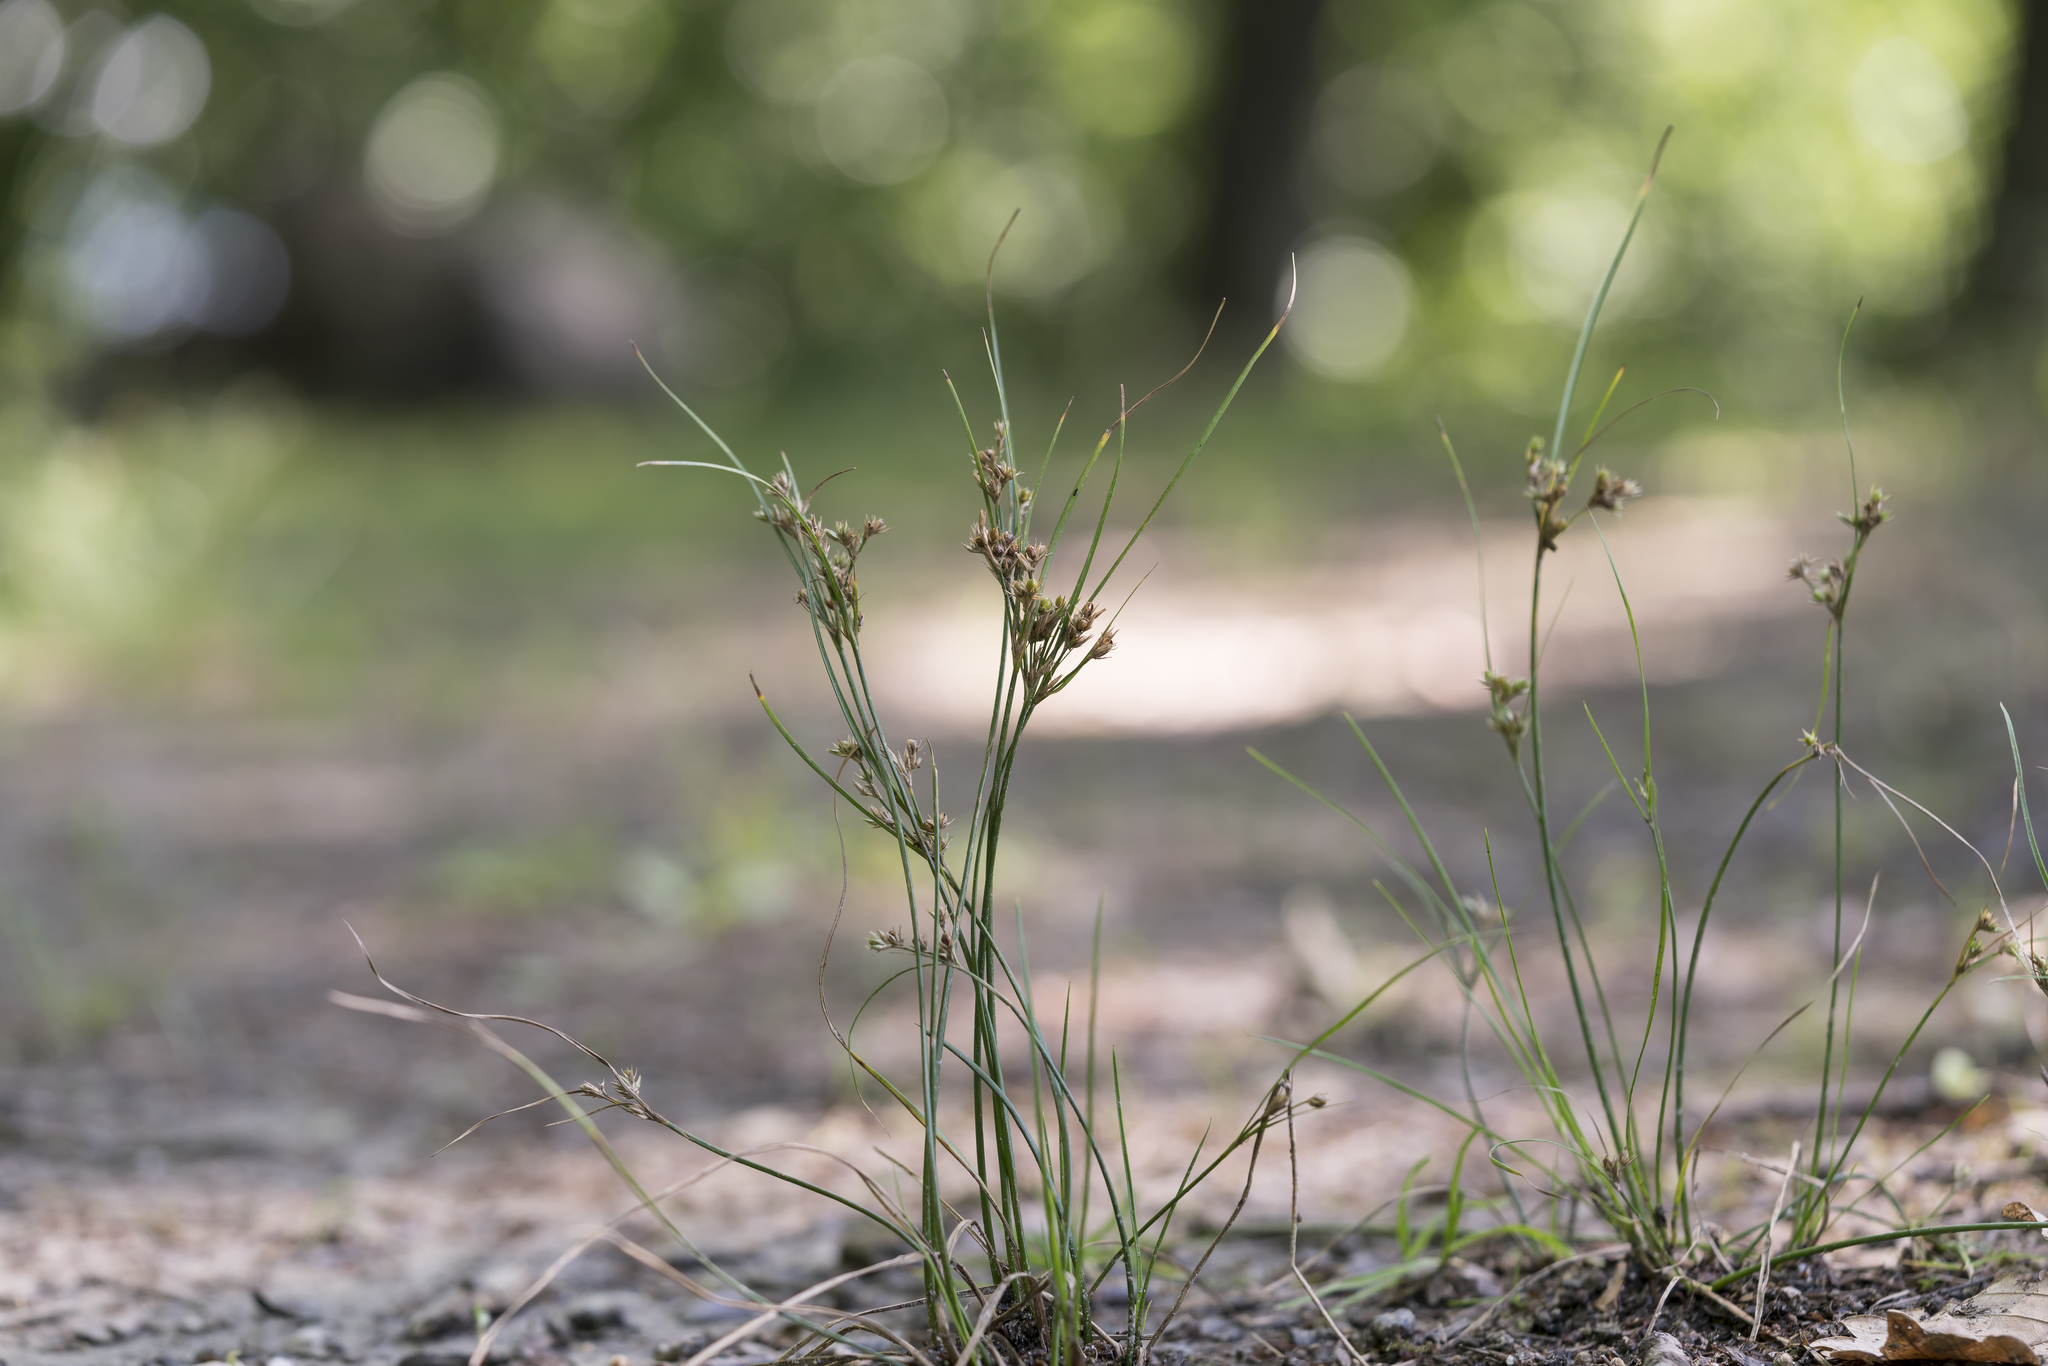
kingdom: Plantae
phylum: Tracheophyta
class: Liliopsida
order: Poales
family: Juncaceae
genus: Juncus
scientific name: Juncus tenuis
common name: Slender rush
